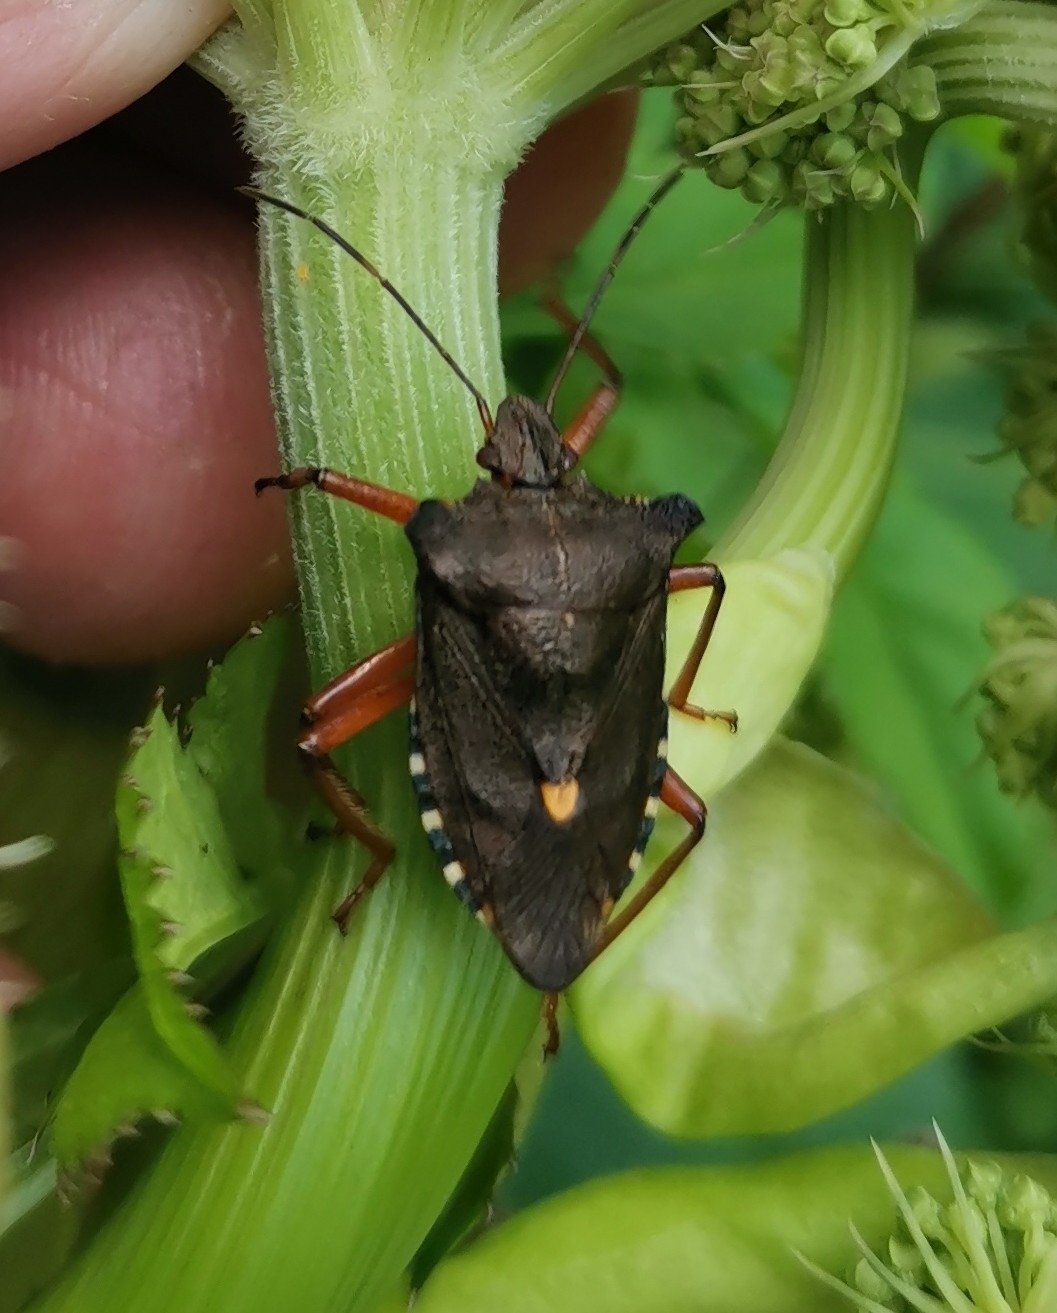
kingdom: Animalia
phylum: Arthropoda
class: Insecta
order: Hemiptera
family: Pentatomidae
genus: Pentatoma
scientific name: Pentatoma rufipes
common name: Forest bug
